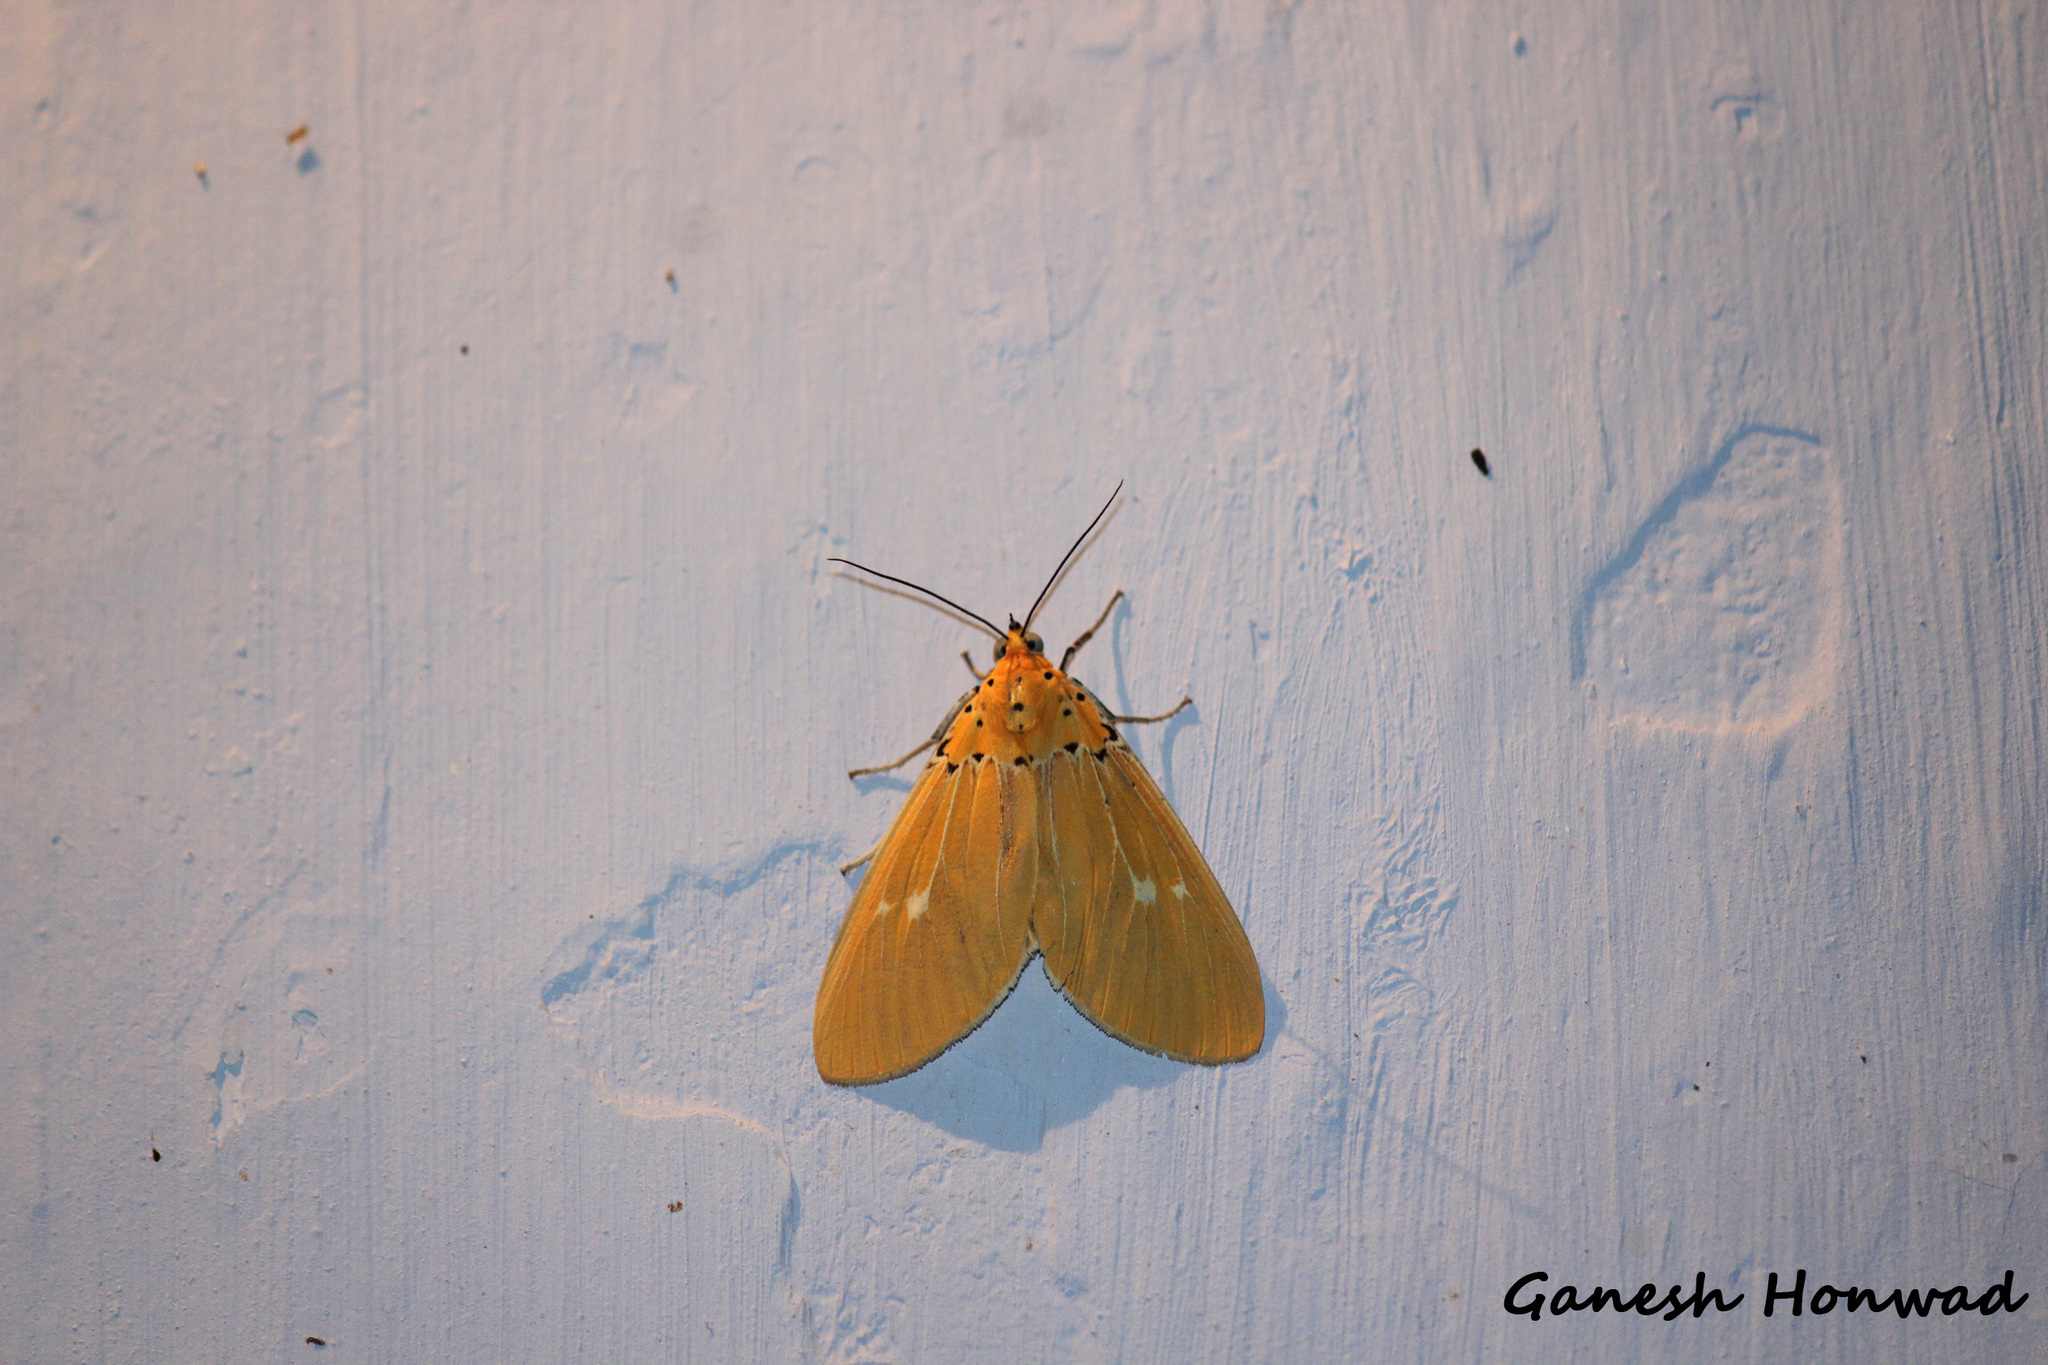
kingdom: Animalia
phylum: Arthropoda
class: Insecta
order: Lepidoptera
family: Erebidae
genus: Asota
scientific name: Asota sericea
